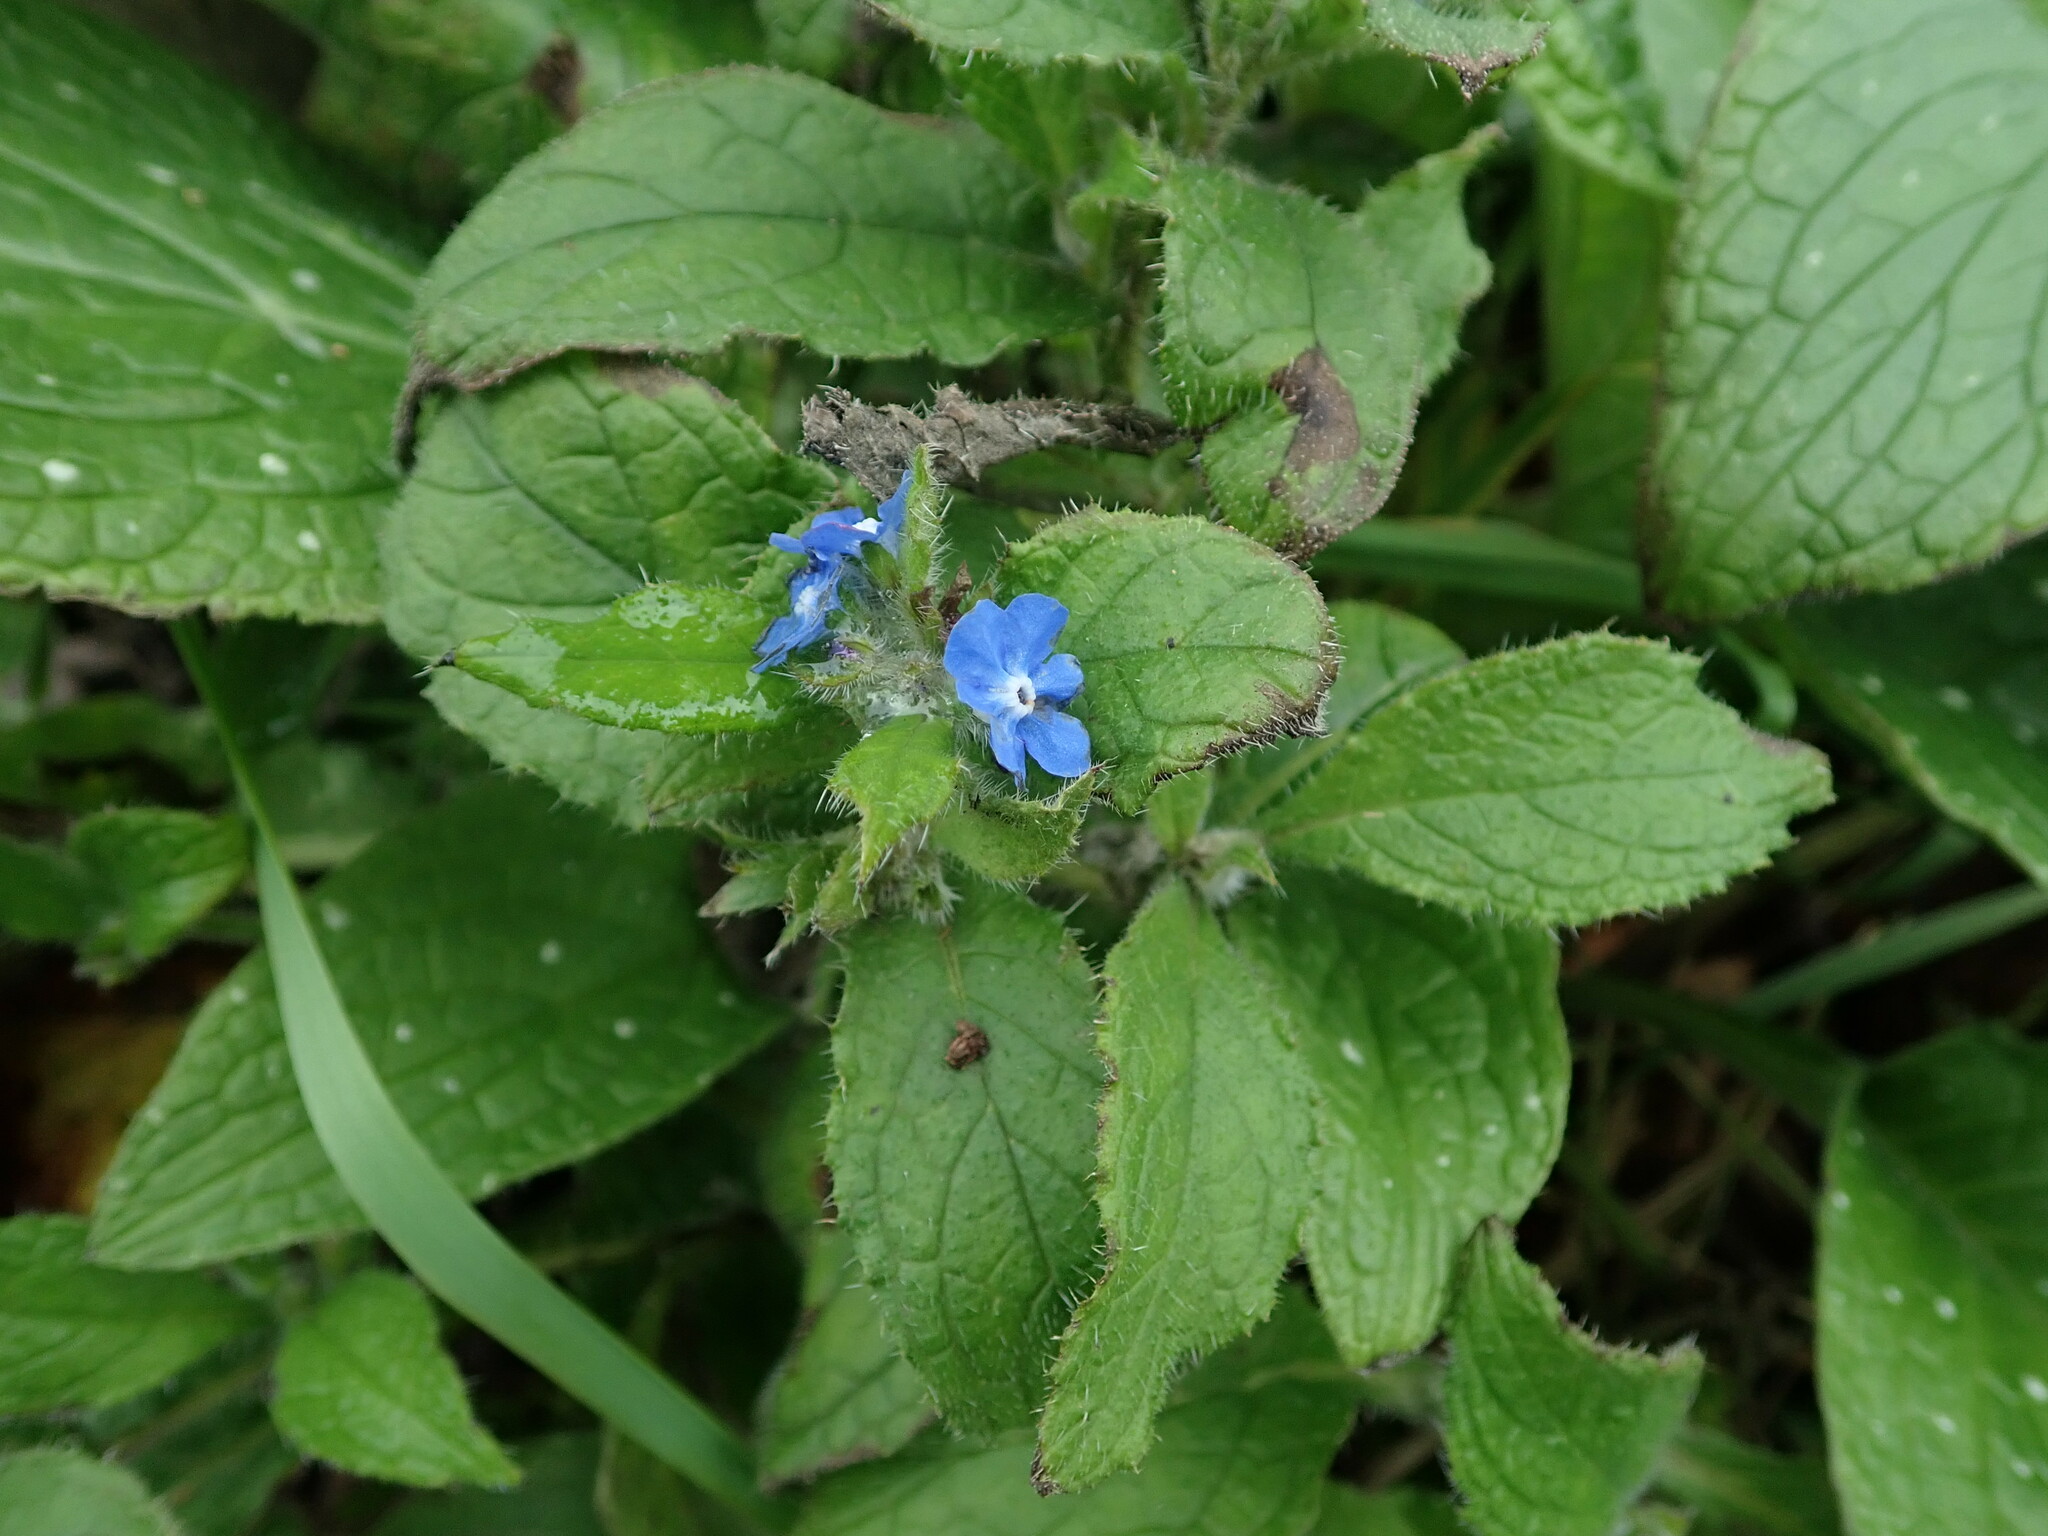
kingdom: Plantae
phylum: Tracheophyta
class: Magnoliopsida
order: Boraginales
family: Boraginaceae
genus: Pentaglottis
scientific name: Pentaglottis sempervirens
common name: Green alkanet
